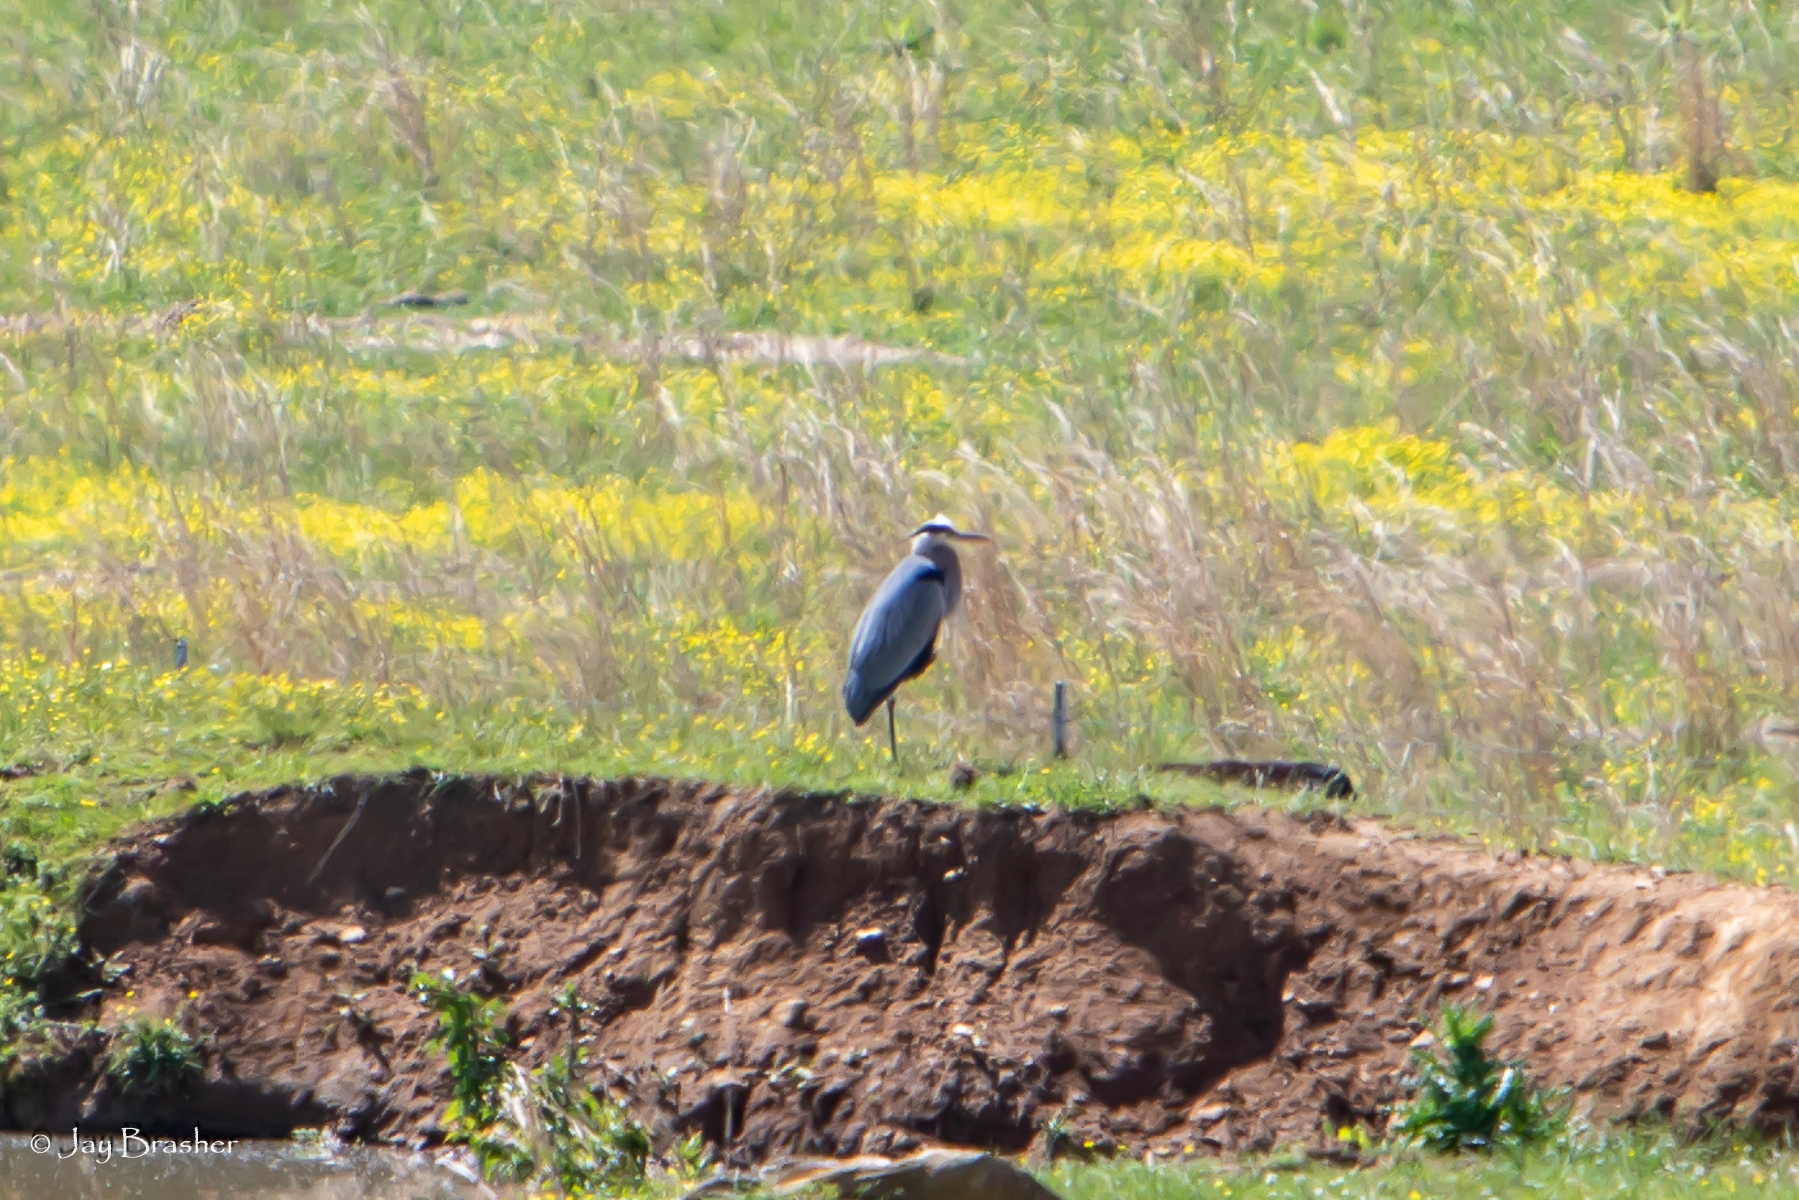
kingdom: Animalia
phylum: Chordata
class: Aves
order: Pelecaniformes
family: Ardeidae
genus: Ardea
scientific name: Ardea herodias
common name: Great blue heron
